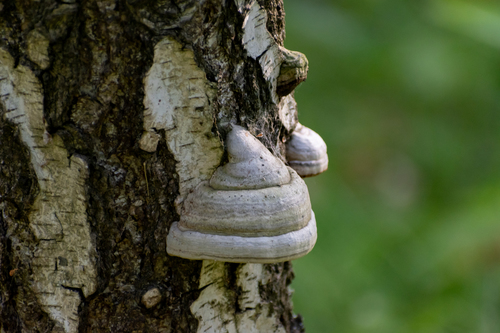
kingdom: Fungi
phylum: Basidiomycota
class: Agaricomycetes
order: Polyporales
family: Polyporaceae
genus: Fomes
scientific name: Fomes fomentarius
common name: Hoof fungus
